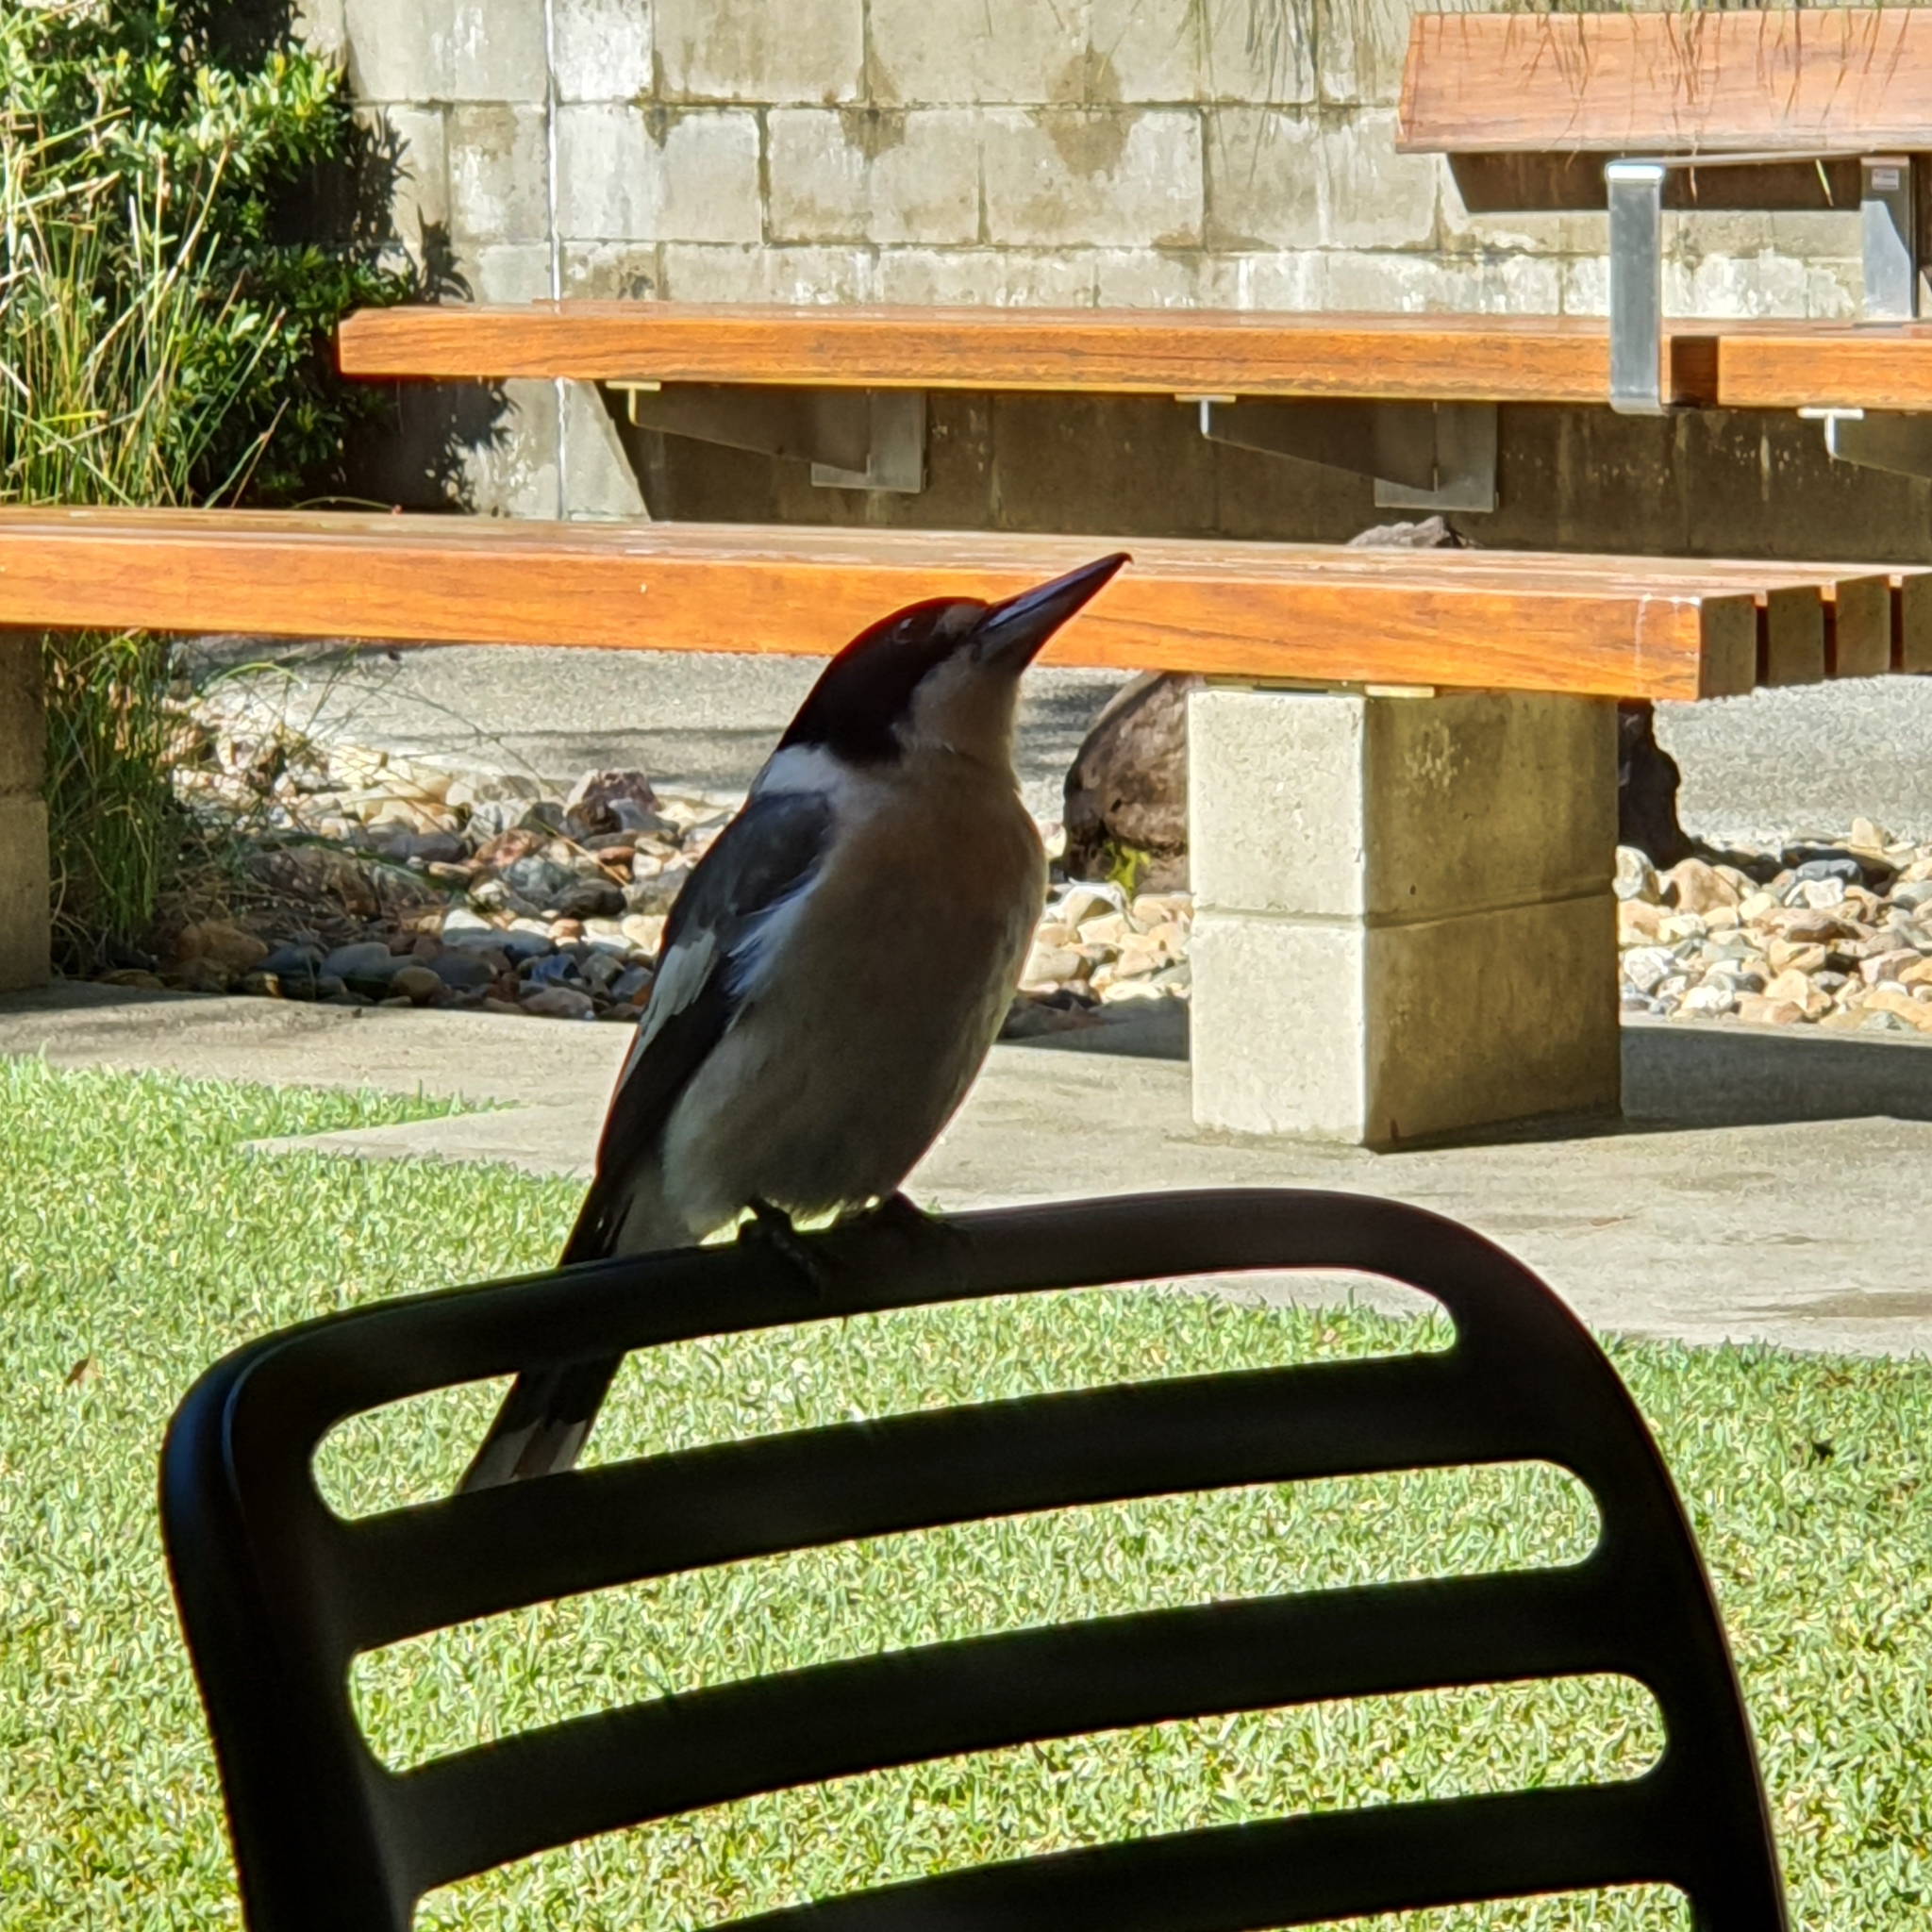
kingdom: Animalia
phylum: Chordata
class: Aves
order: Passeriformes
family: Cracticidae
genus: Cracticus
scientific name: Cracticus torquatus
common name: Grey butcherbird
